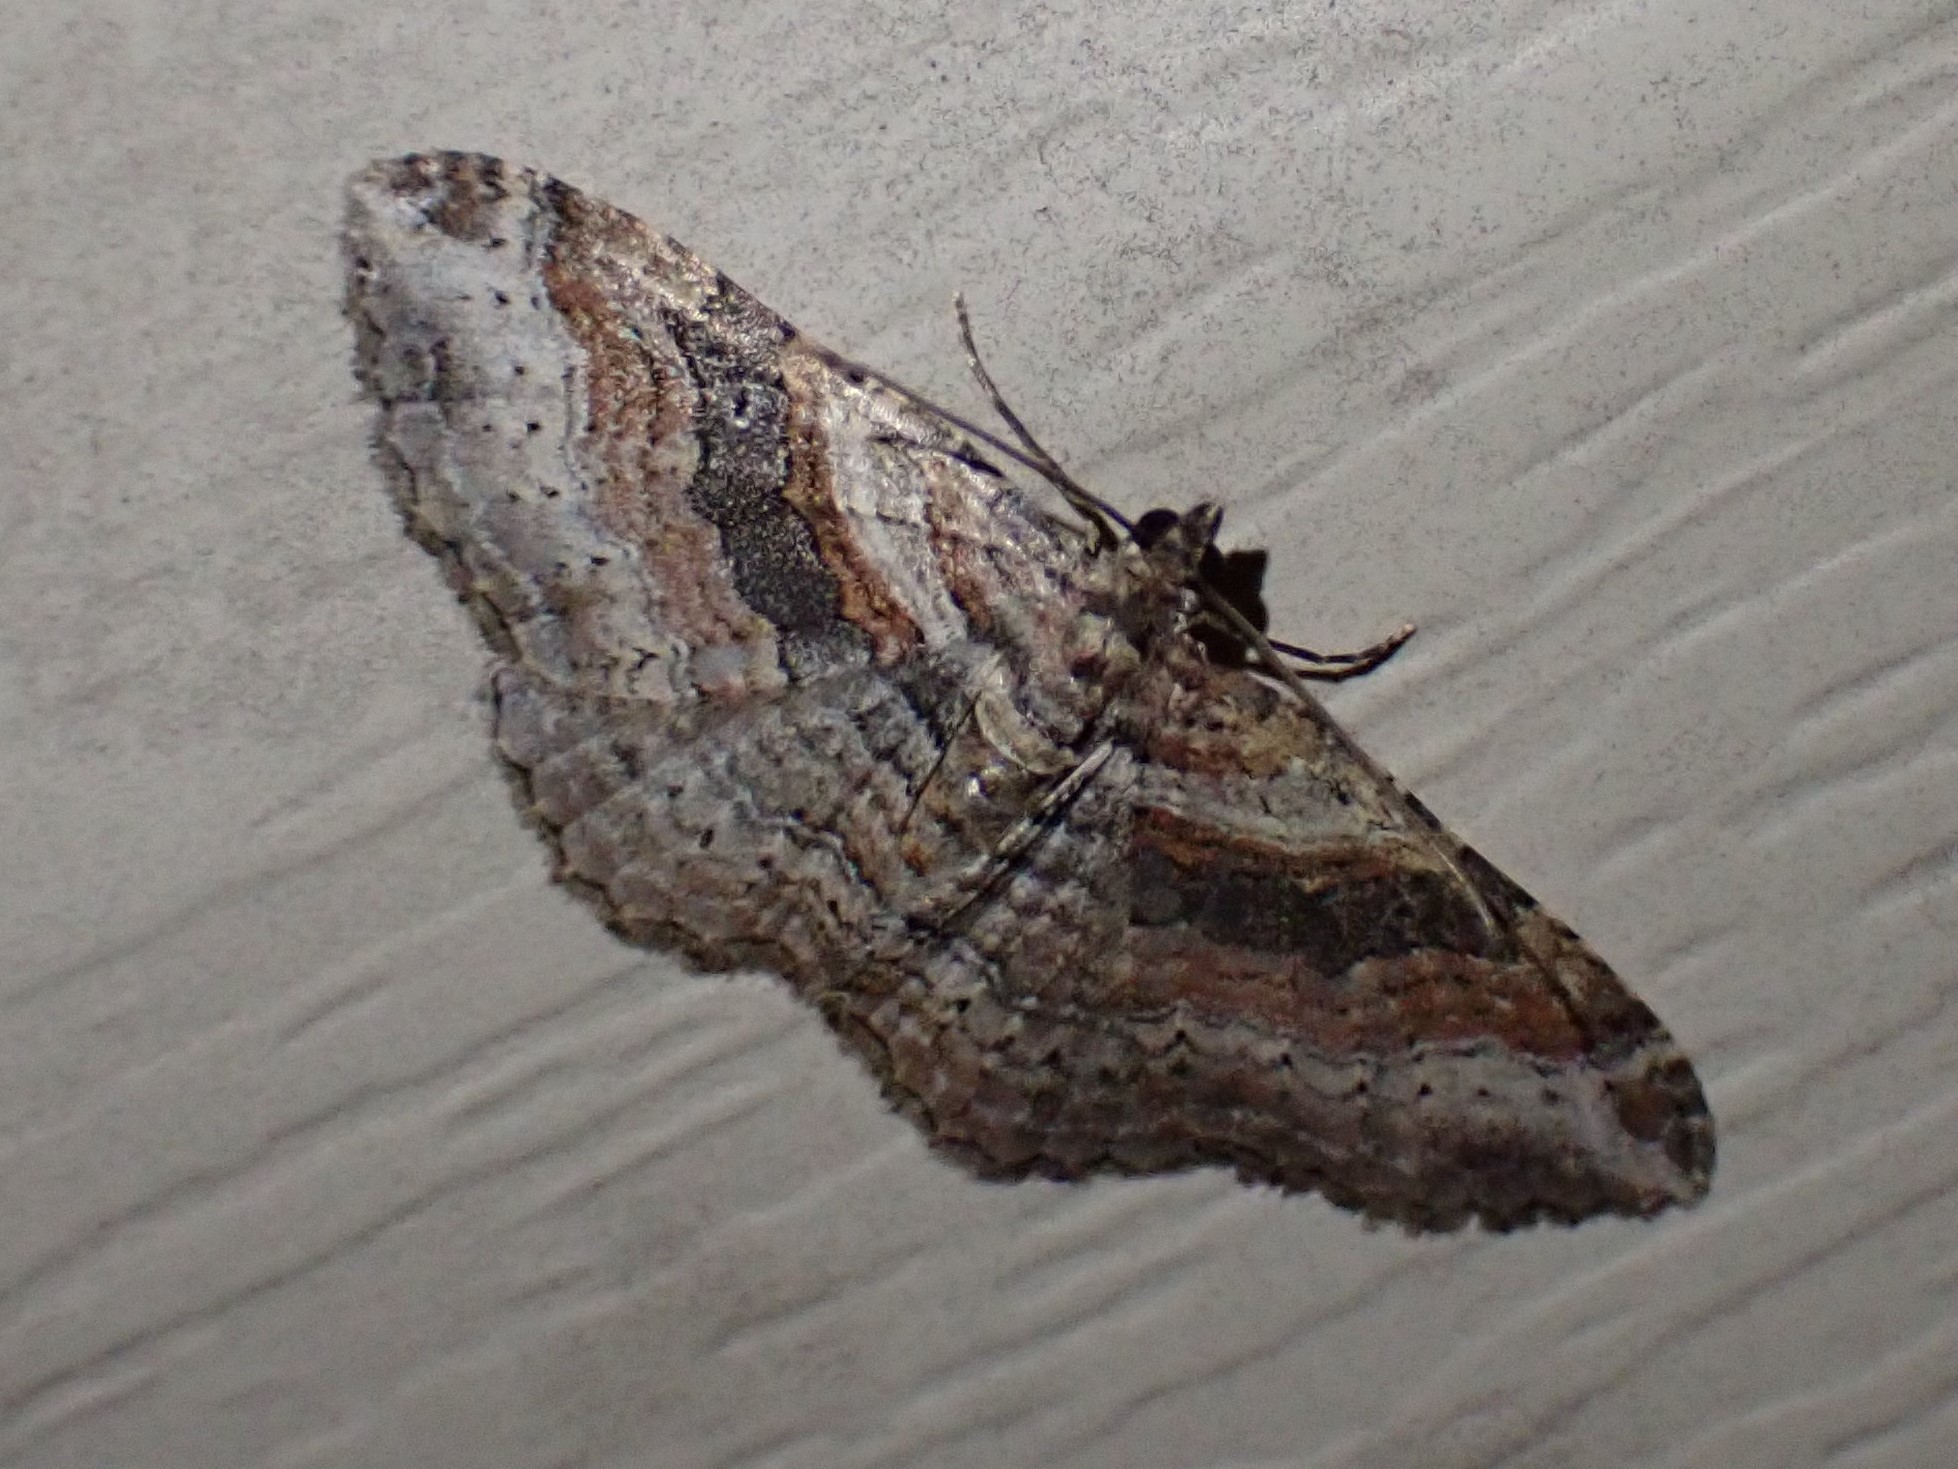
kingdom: Animalia
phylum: Arthropoda
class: Insecta
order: Lepidoptera
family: Geometridae
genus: Costaconvexa
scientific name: Costaconvexa centrostrigaria
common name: Bent-line carpet
